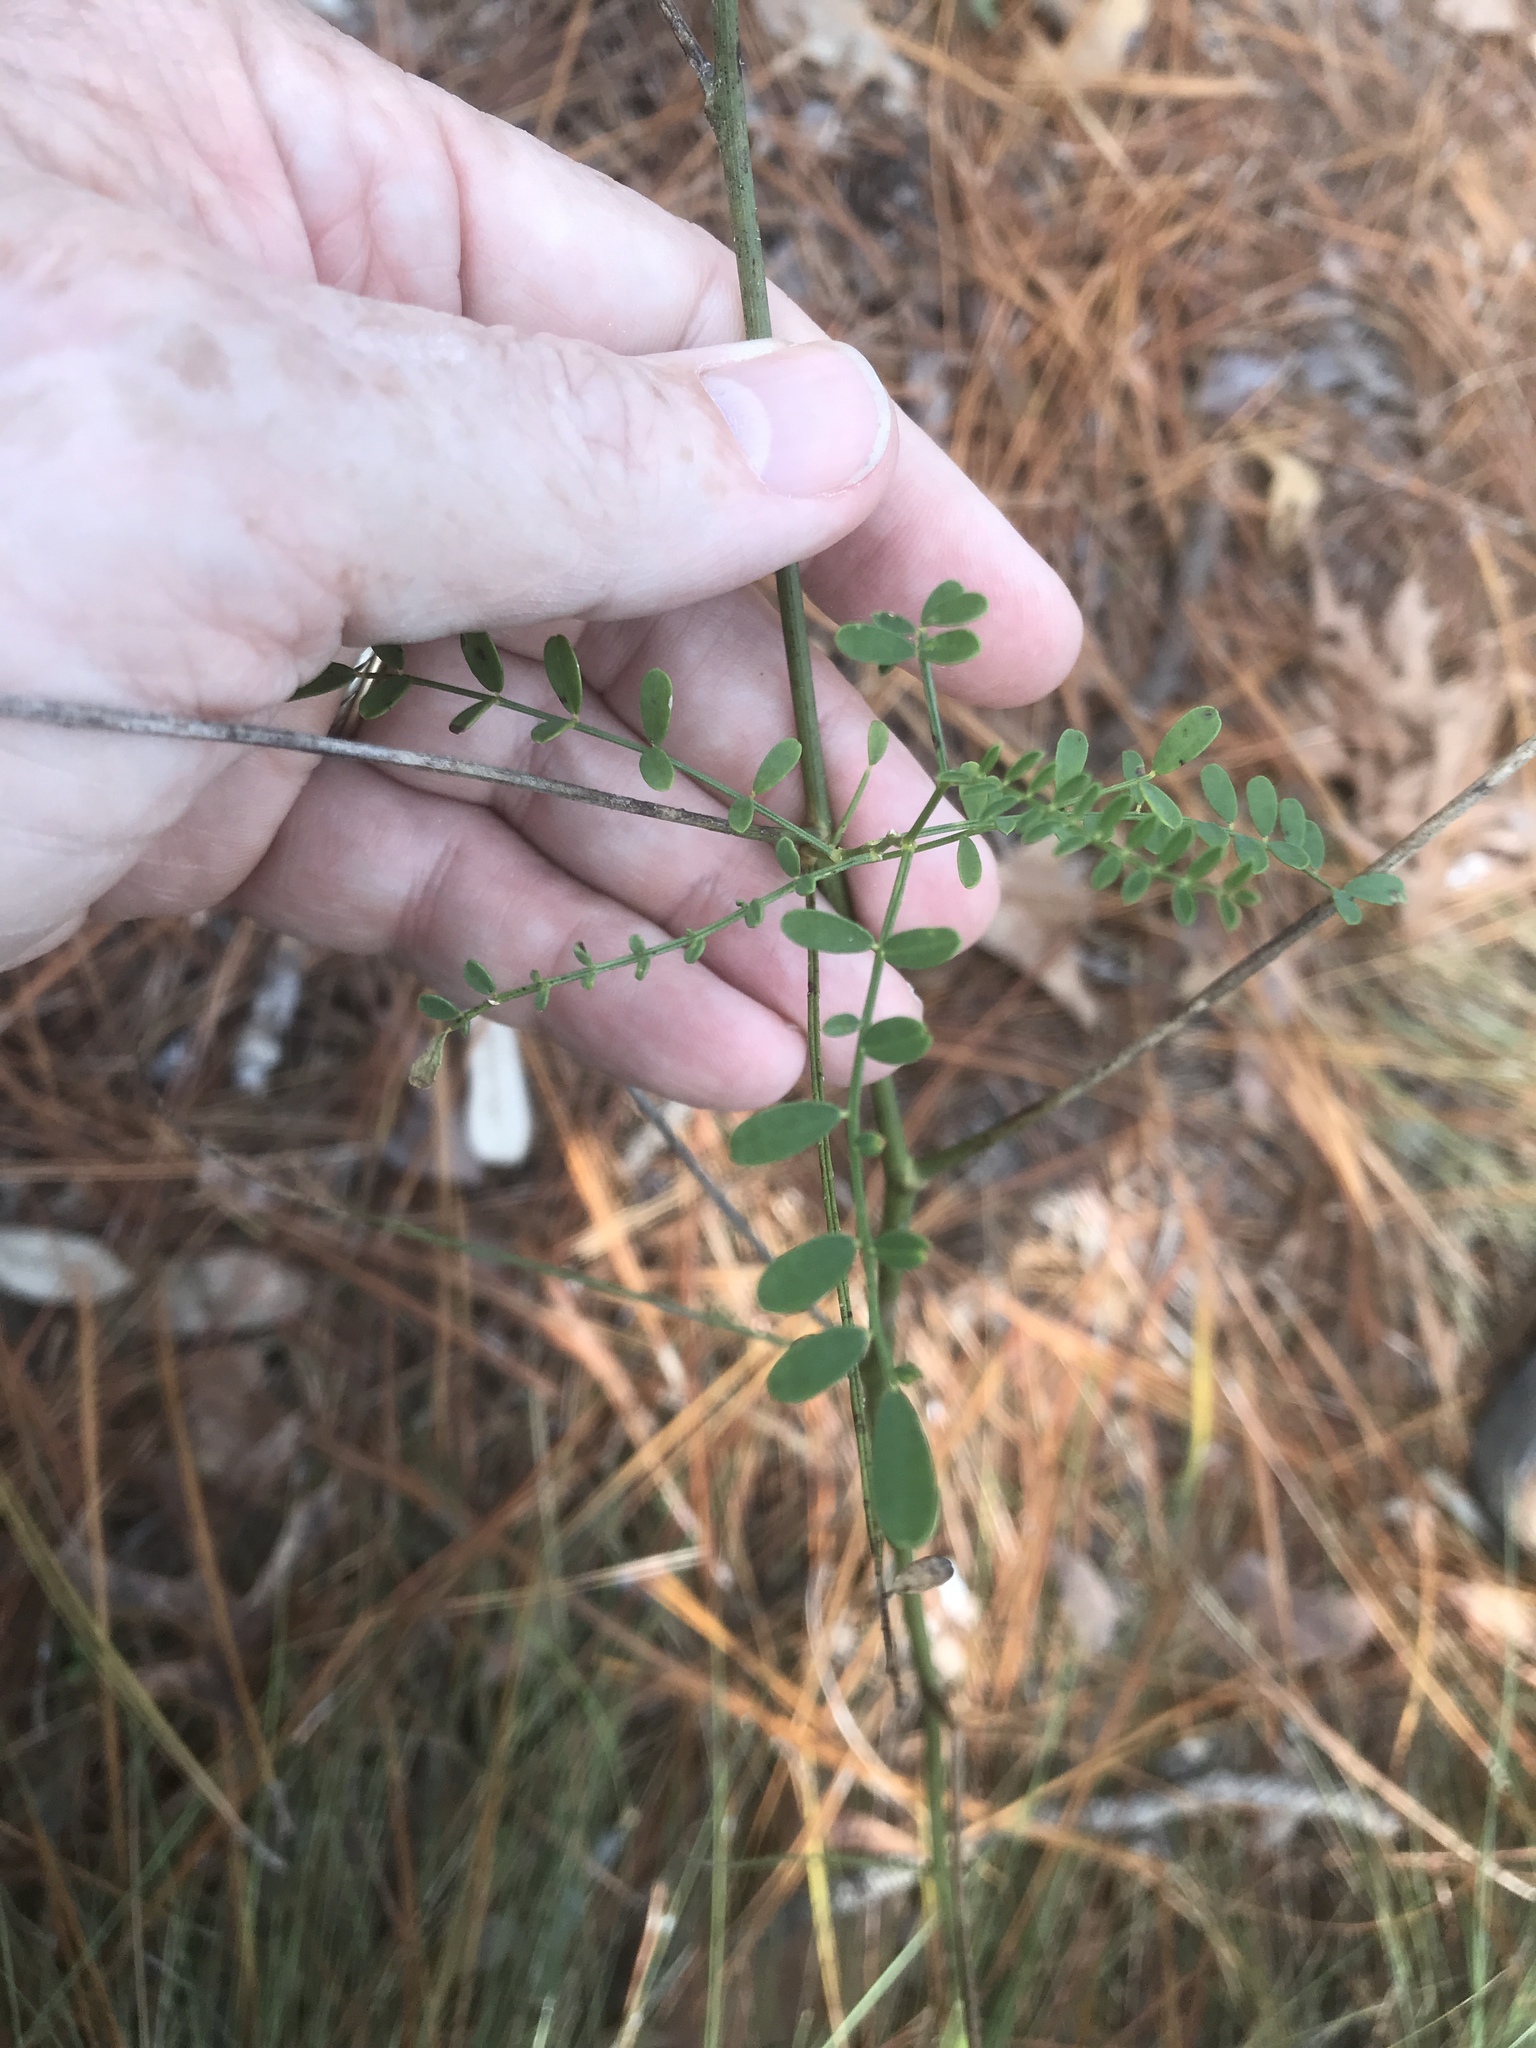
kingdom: Plantae
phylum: Tracheophyta
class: Magnoliopsida
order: Fabales
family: Fabaceae
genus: Astragalus
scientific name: Astragalus michauxii
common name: Michaux milk-vetch
